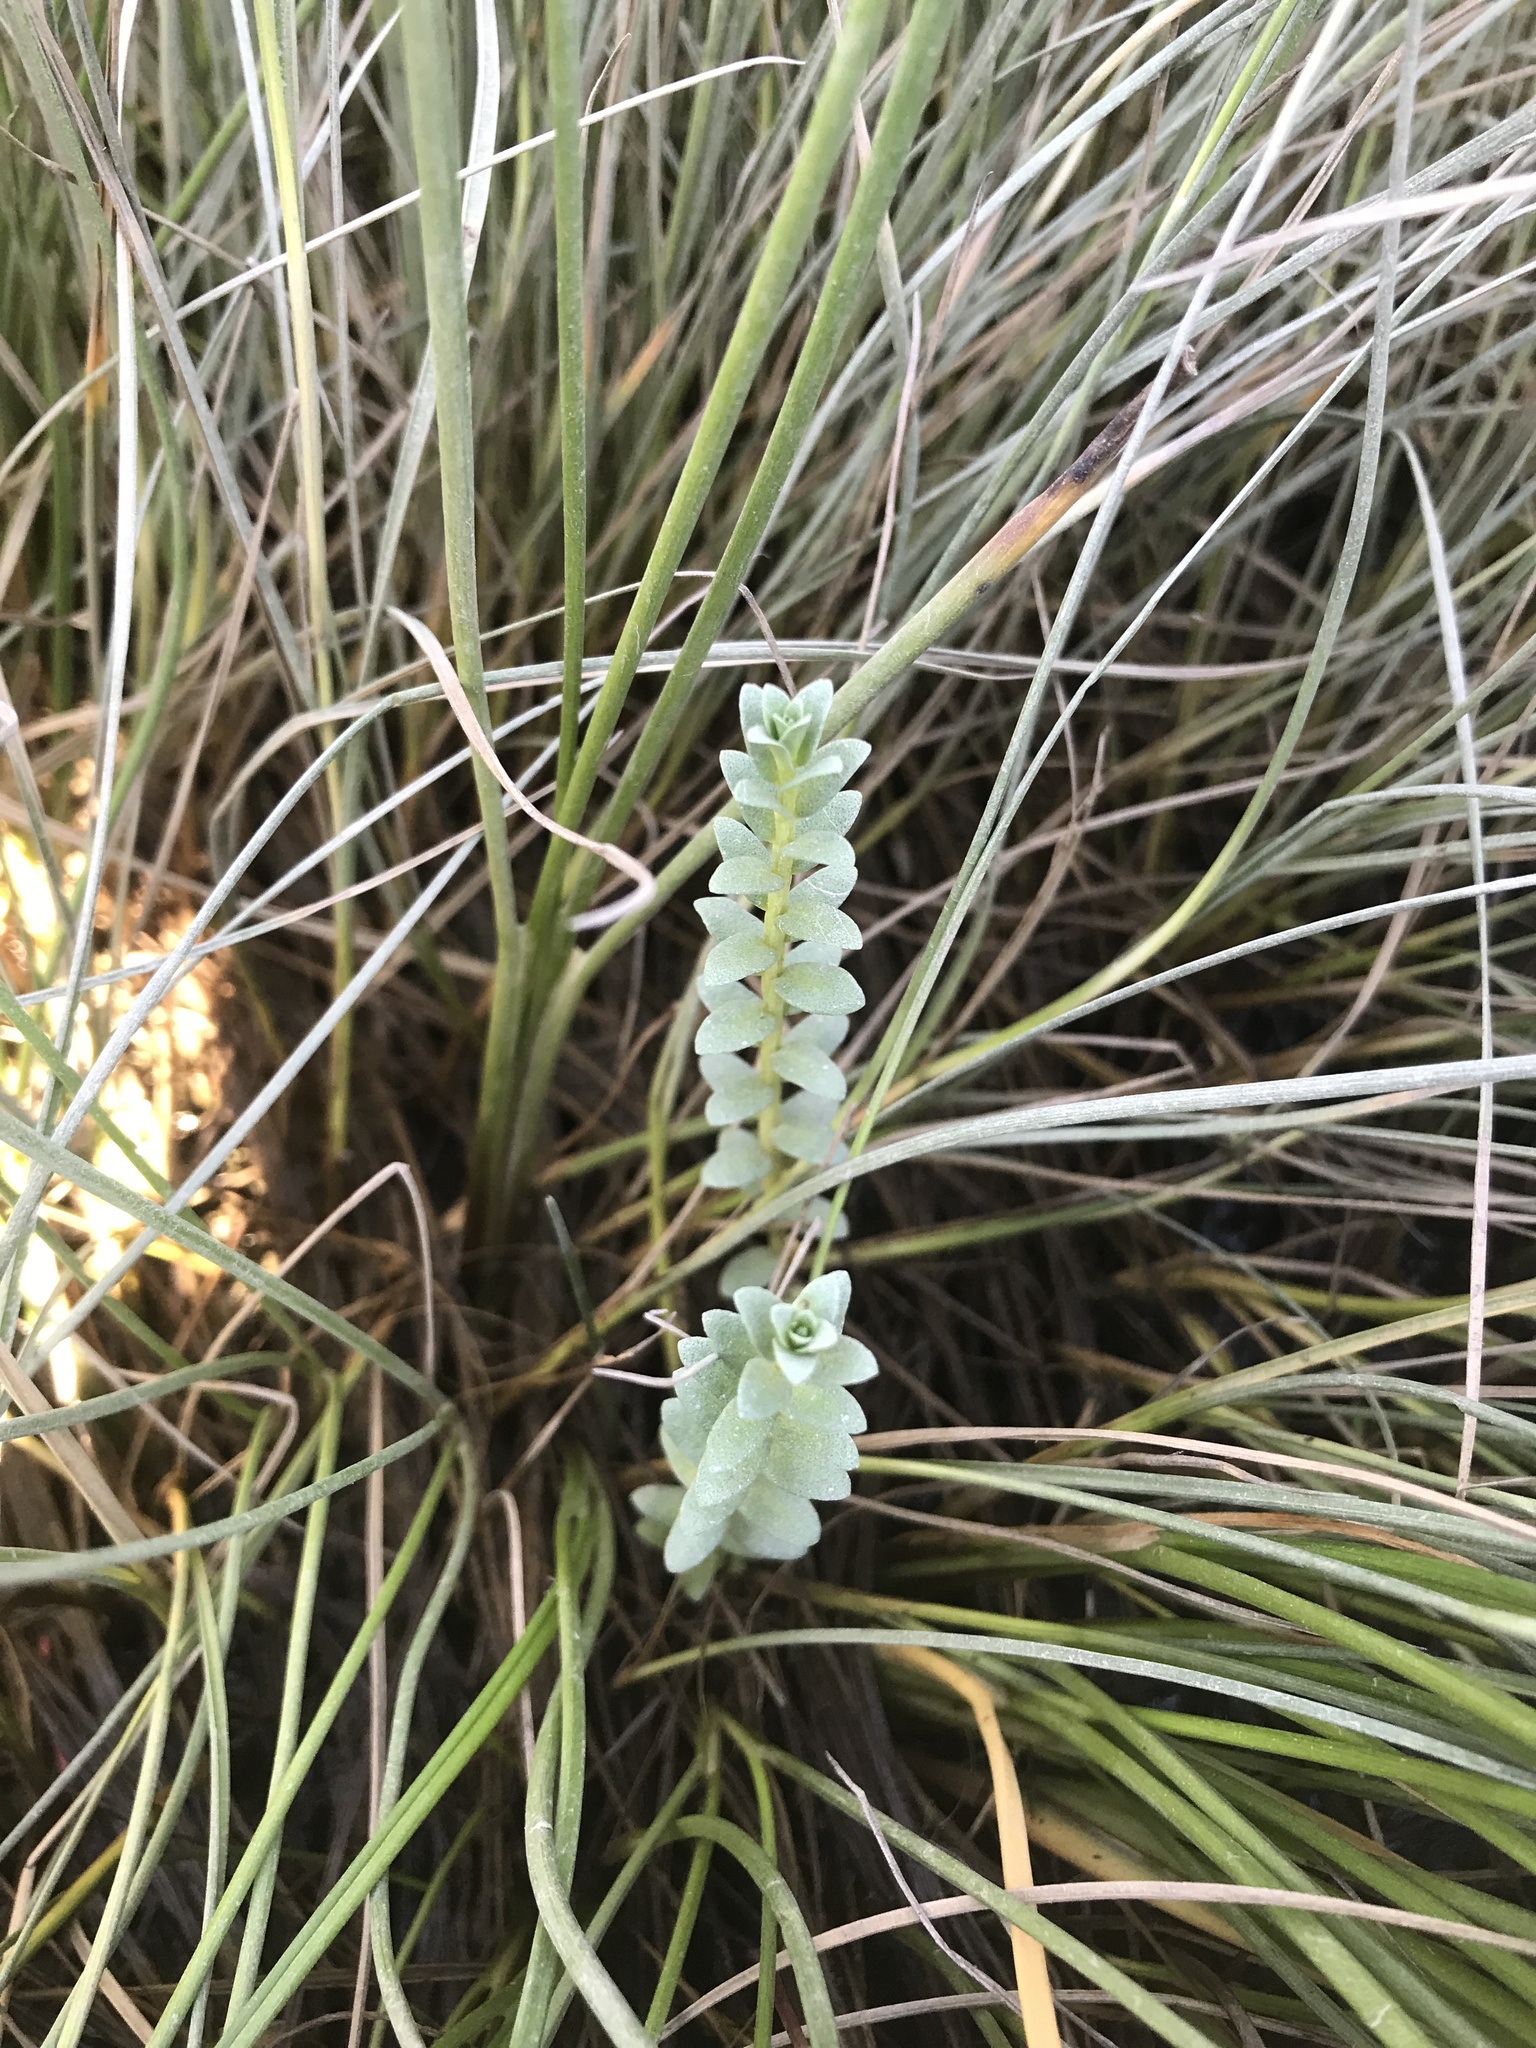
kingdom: Plantae
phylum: Tracheophyta
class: Magnoliopsida
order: Ericales
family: Primulaceae
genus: Lysimachia
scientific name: Lysimachia maritima
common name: Sea milkwort
